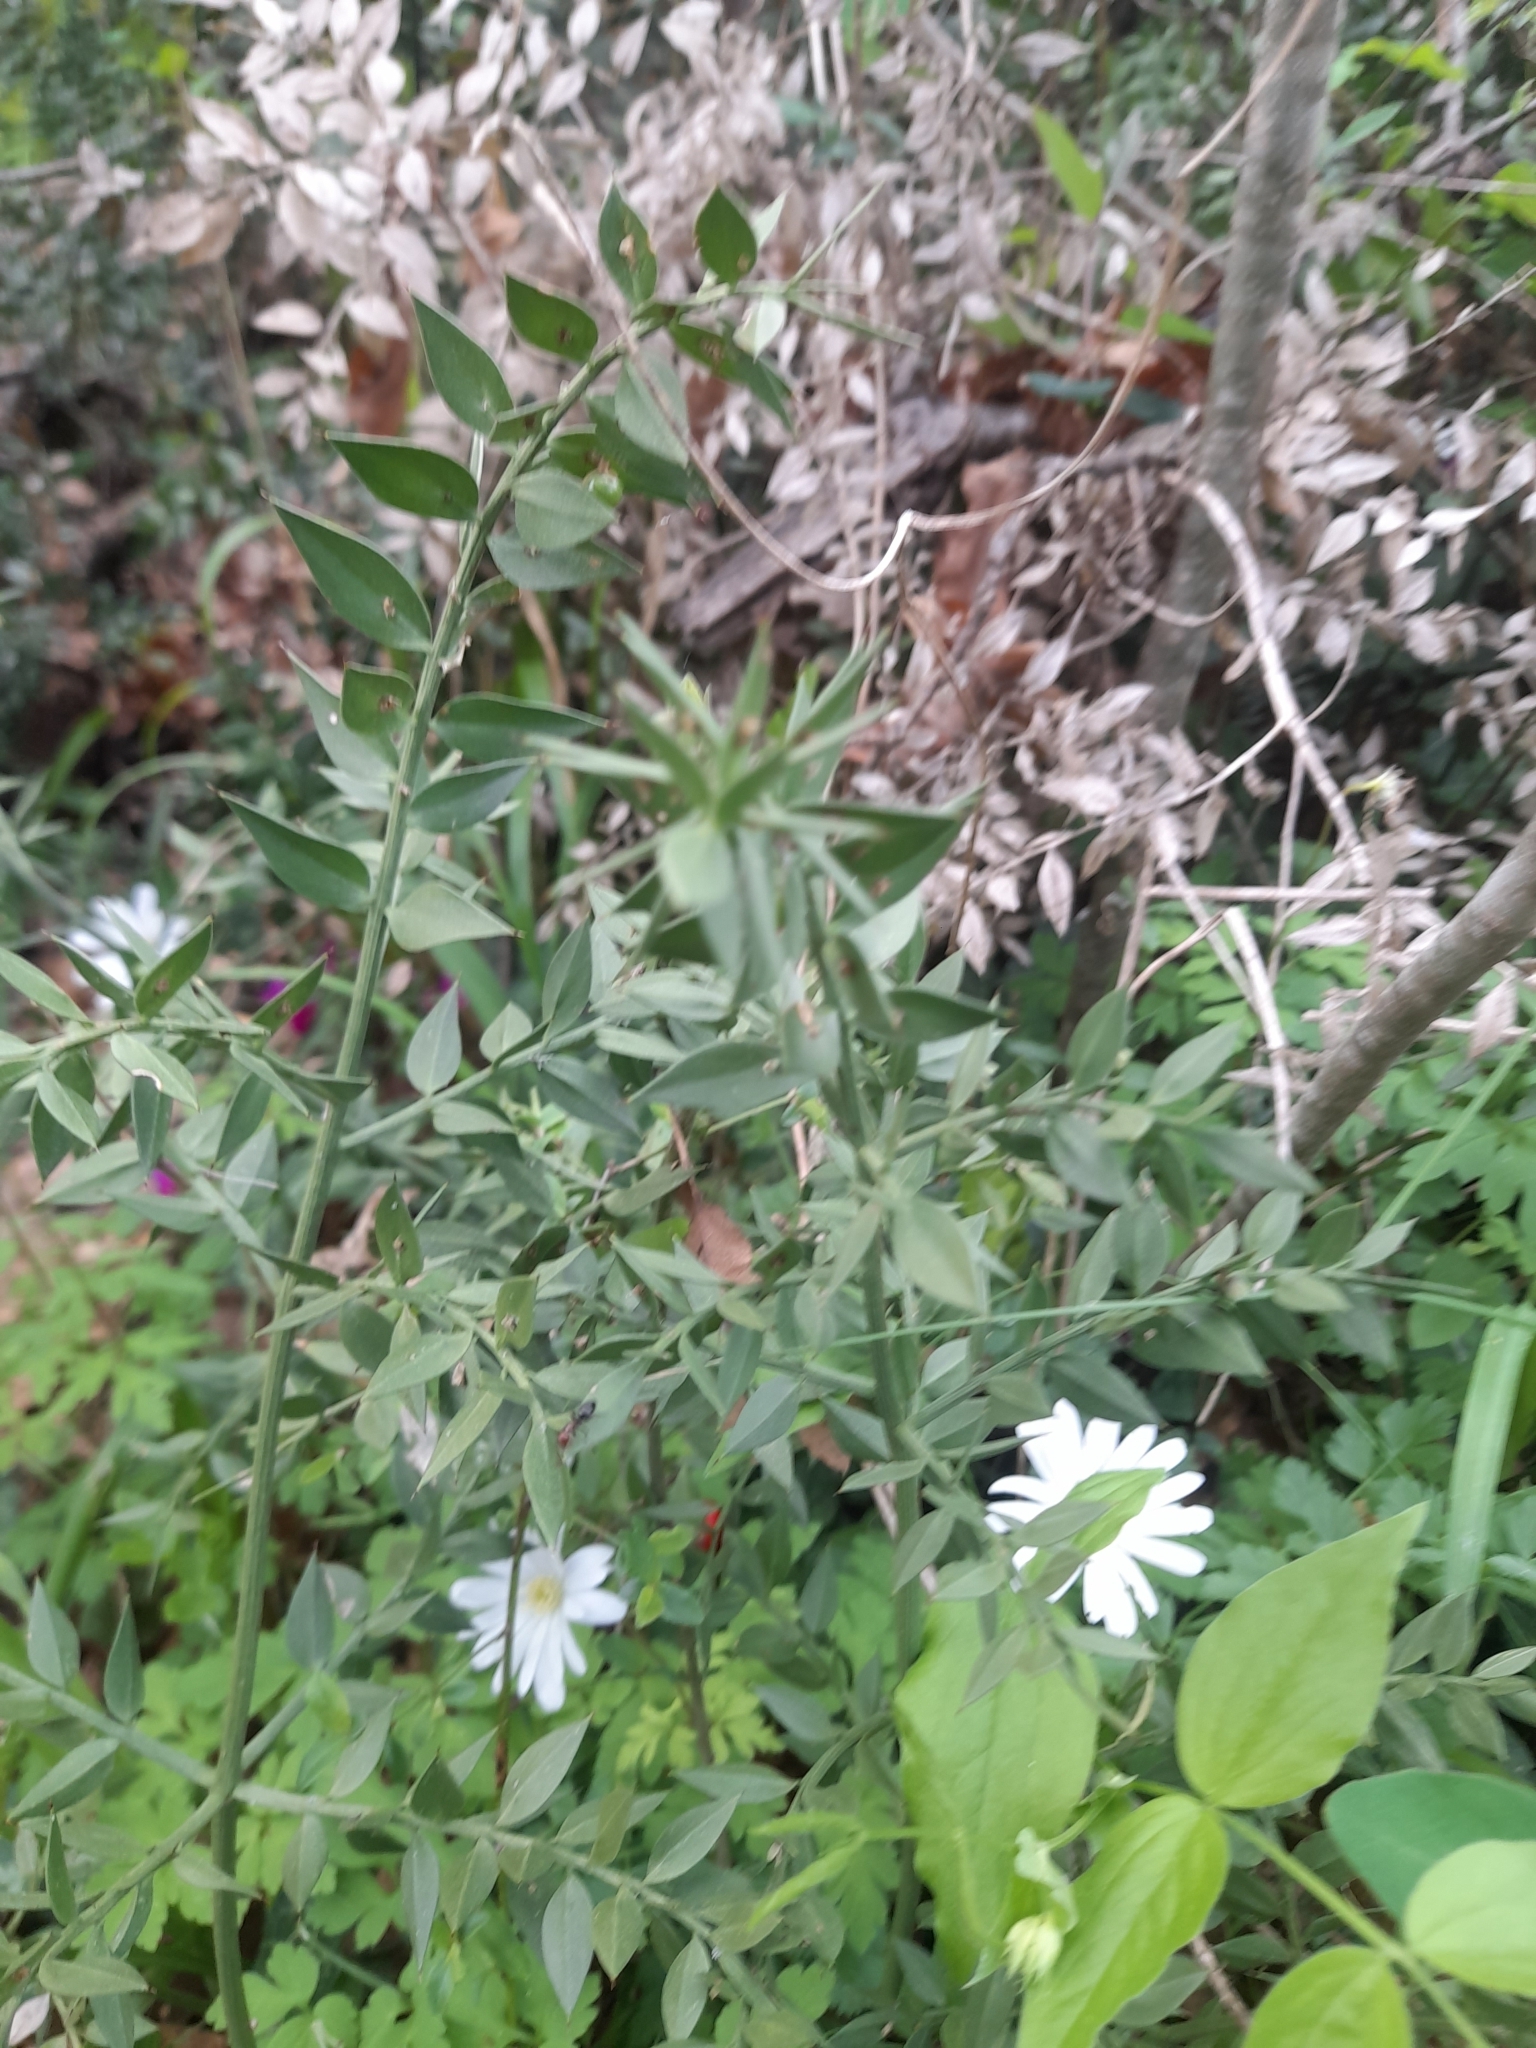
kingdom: Plantae
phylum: Tracheophyta
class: Liliopsida
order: Asparagales
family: Asparagaceae
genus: Ruscus
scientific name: Ruscus aculeatus
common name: Butcher's-broom
